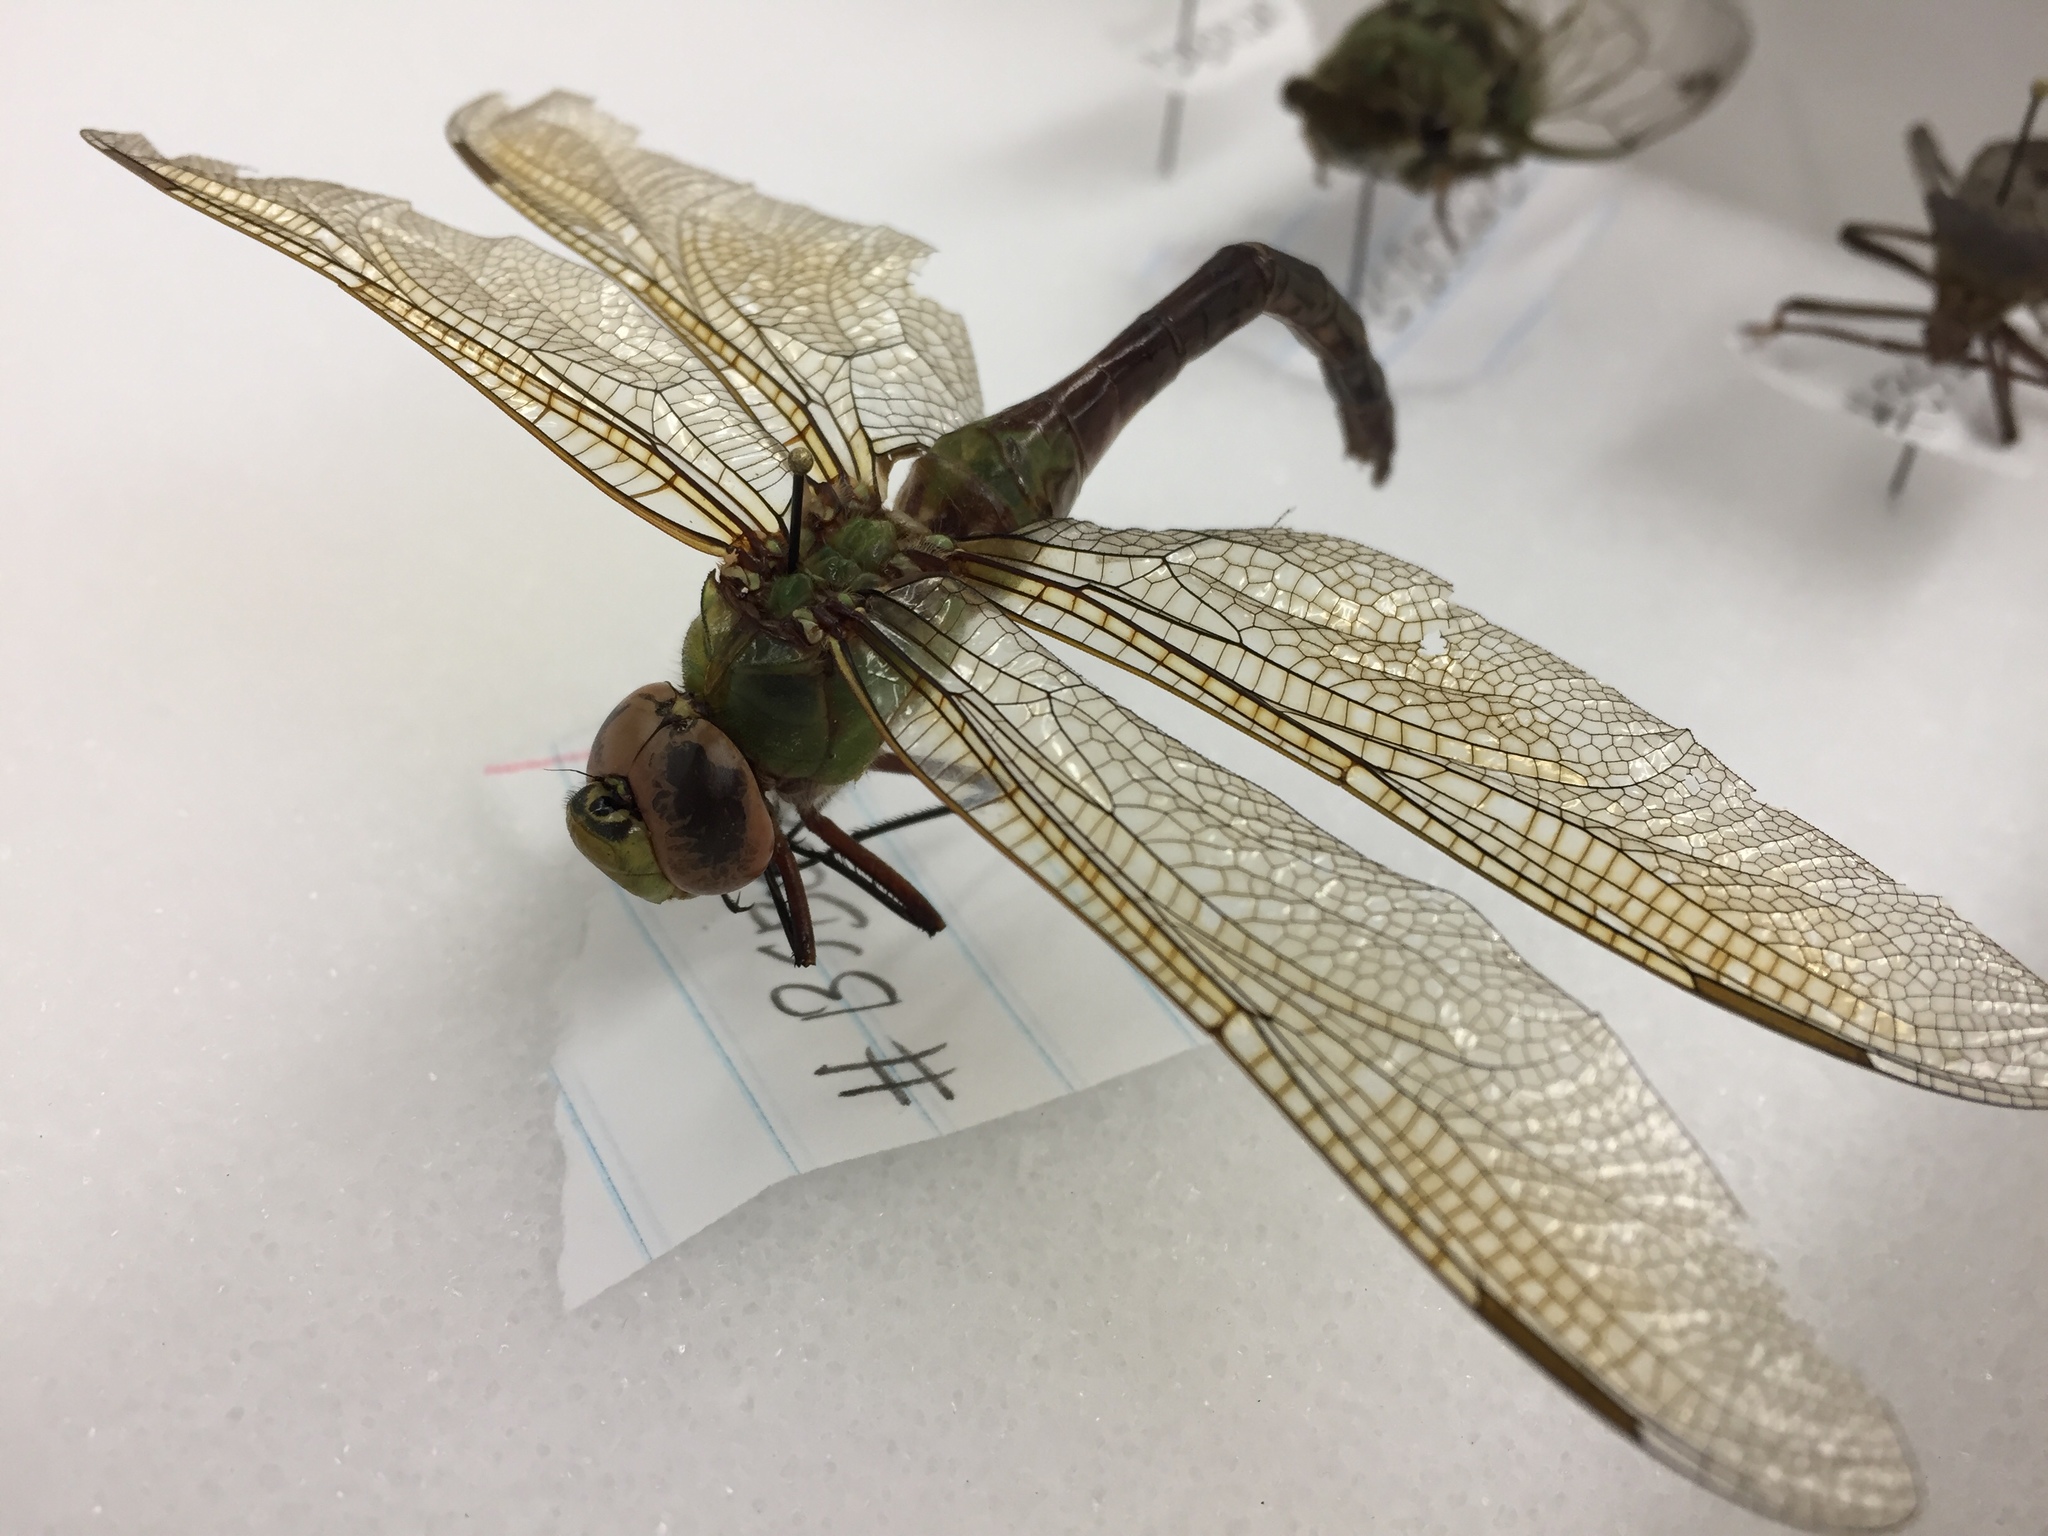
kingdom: Animalia
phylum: Arthropoda
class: Insecta
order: Odonata
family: Aeshnidae
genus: Anax
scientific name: Anax junius
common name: Common green darner
